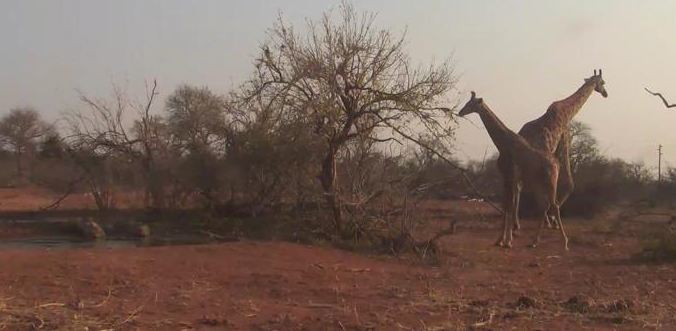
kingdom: Animalia
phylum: Chordata
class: Mammalia
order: Artiodactyla
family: Giraffidae
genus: Giraffa
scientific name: Giraffa giraffa
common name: Southern giraffe
